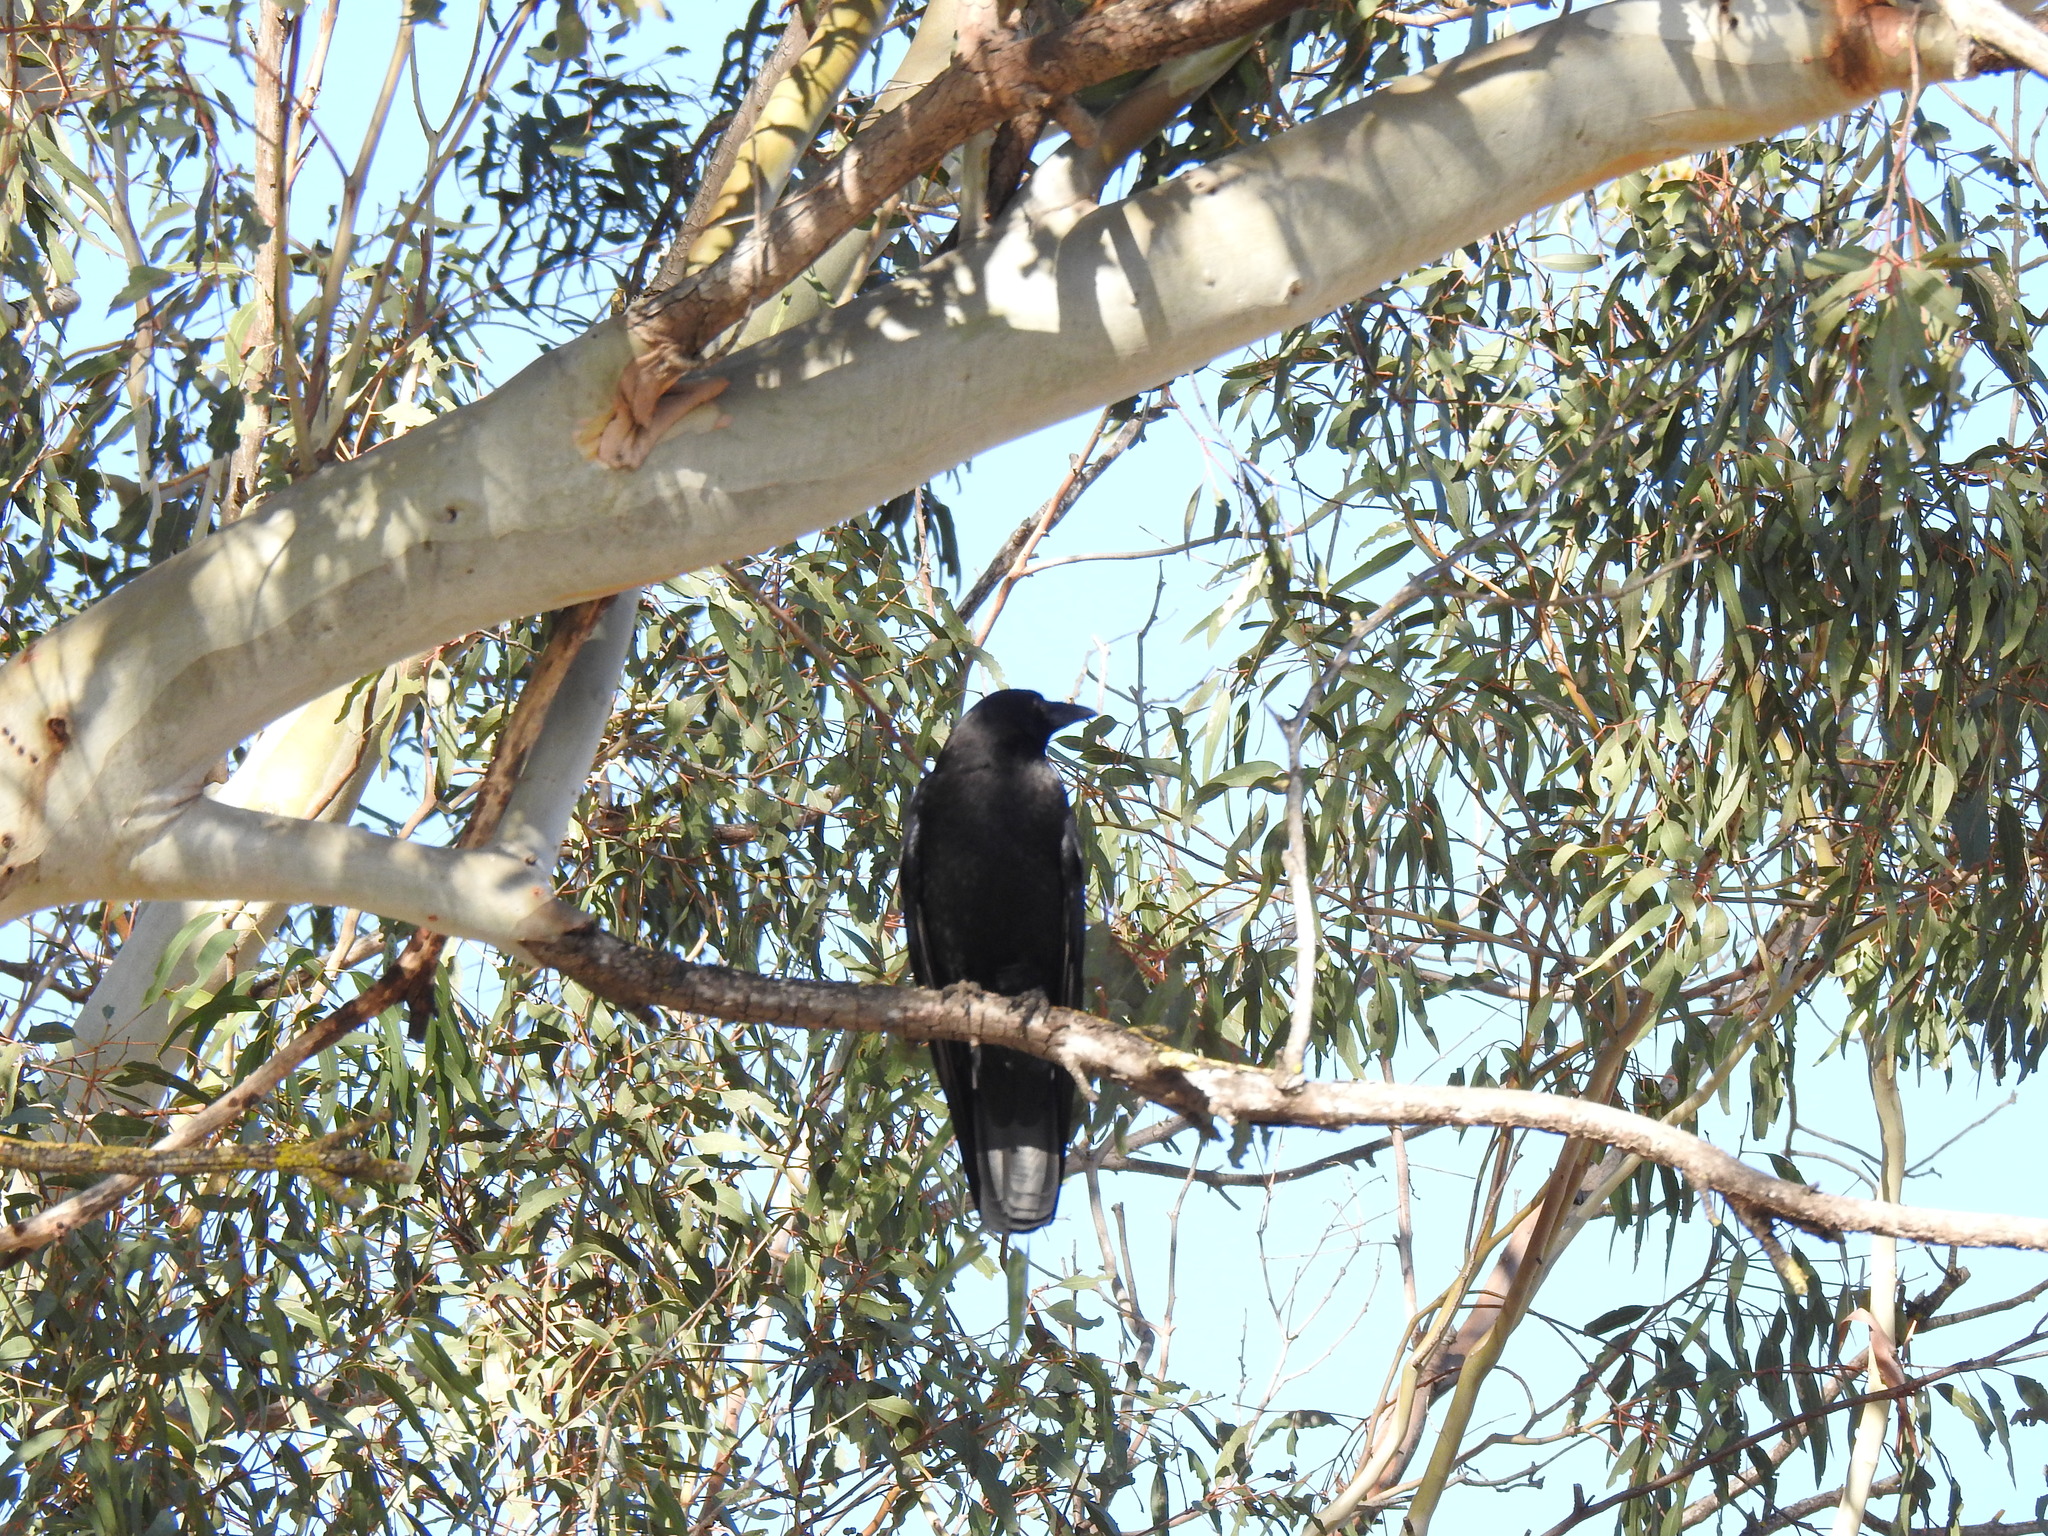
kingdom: Animalia
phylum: Chordata
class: Aves
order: Passeriformes
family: Corvidae
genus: Corvus
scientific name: Corvus brachyrhynchos
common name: American crow
